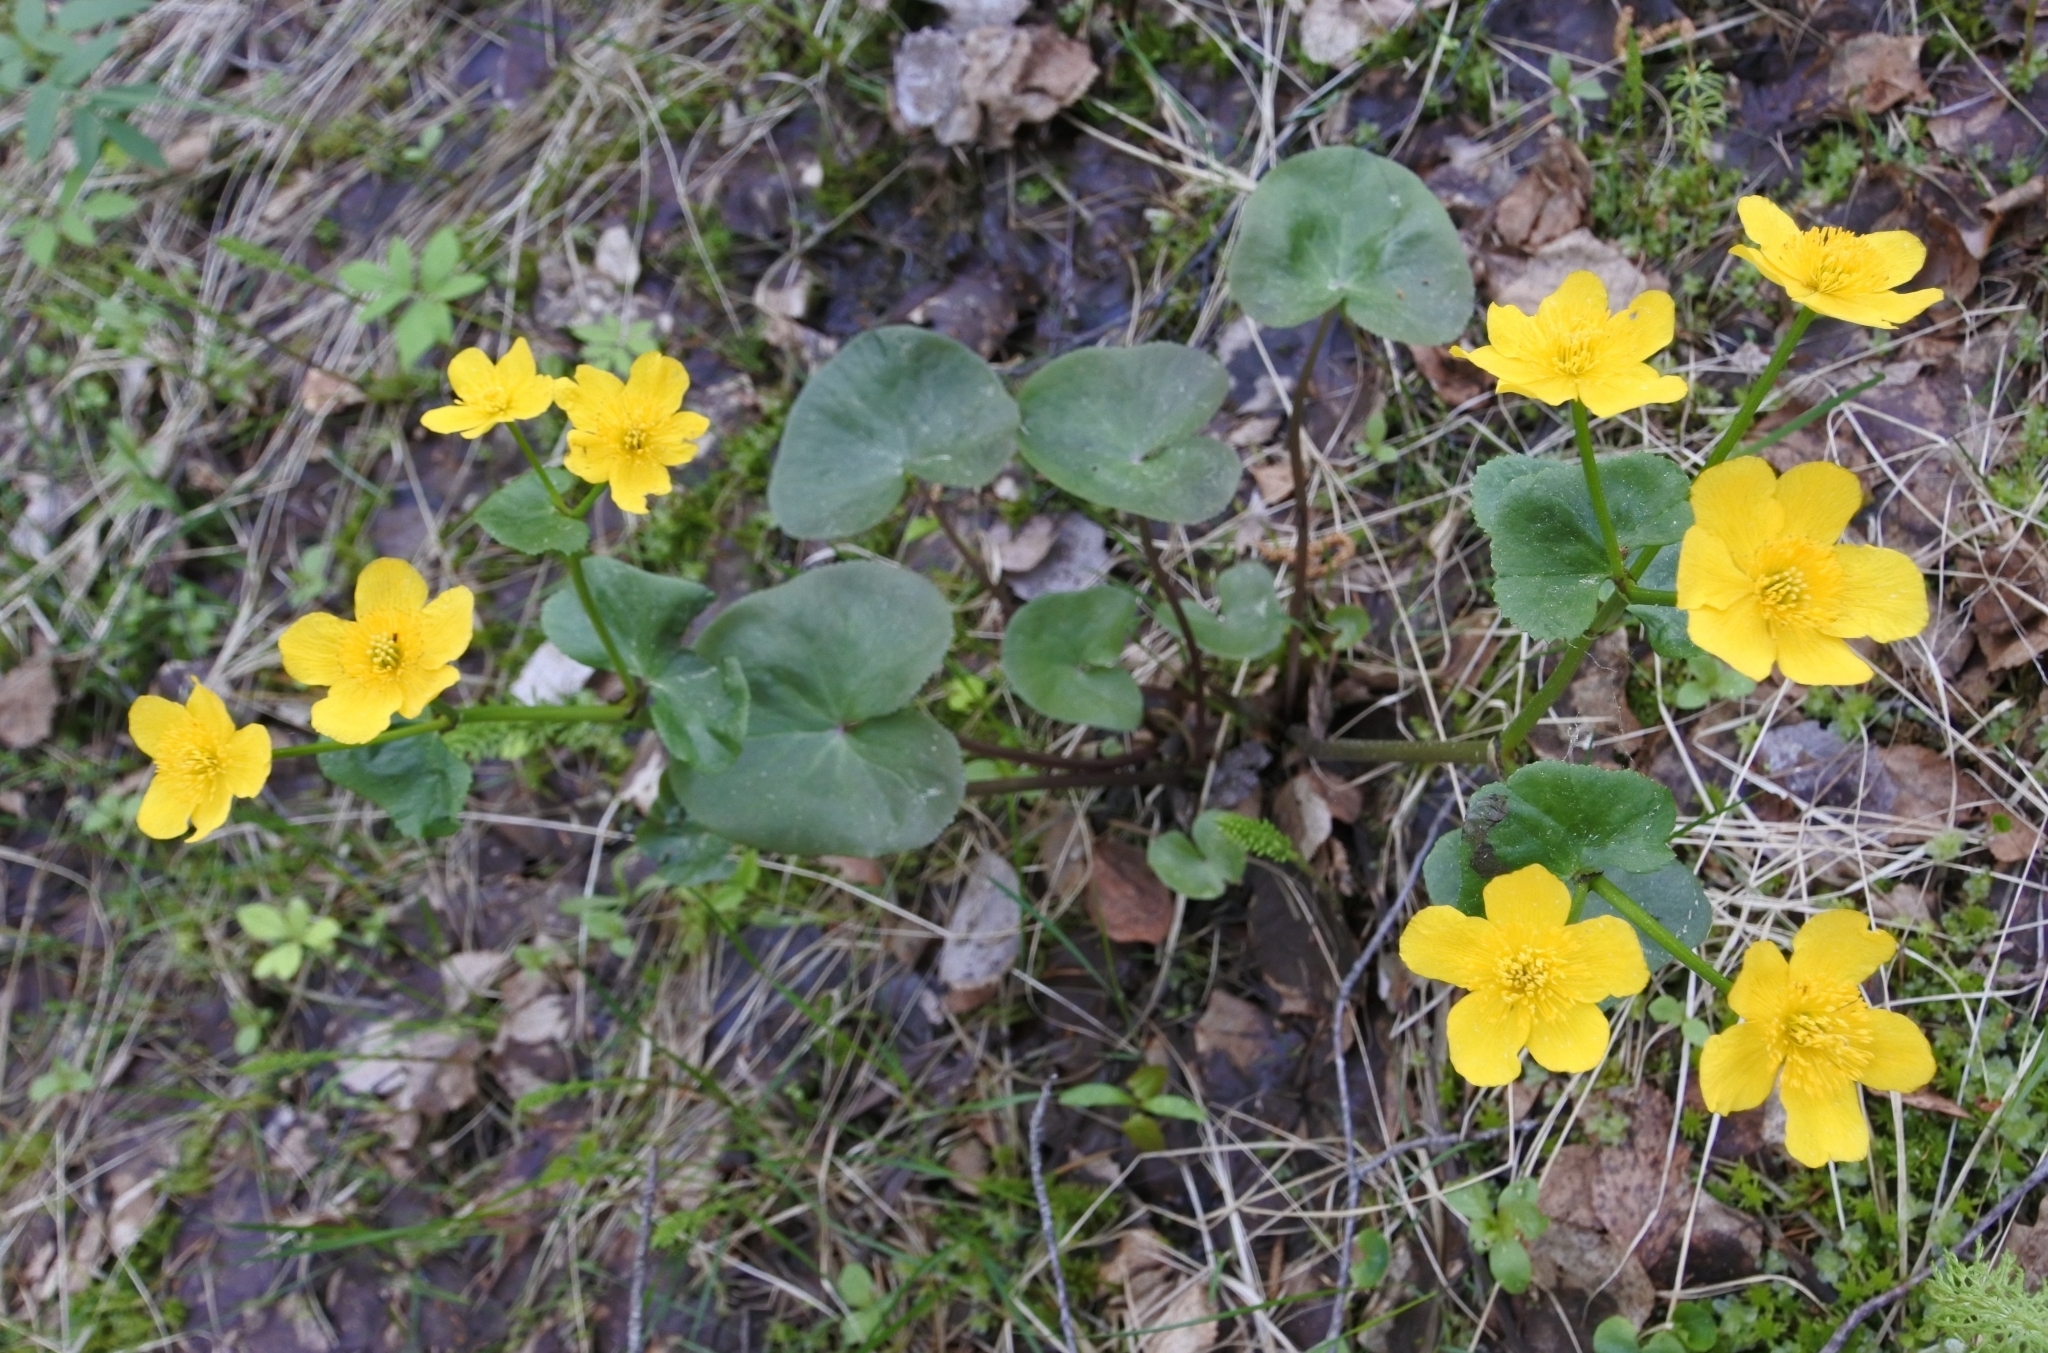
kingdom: Plantae
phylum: Tracheophyta
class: Magnoliopsida
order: Ranunculales
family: Ranunculaceae
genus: Caltha
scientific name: Caltha palustris
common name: Marsh marigold
